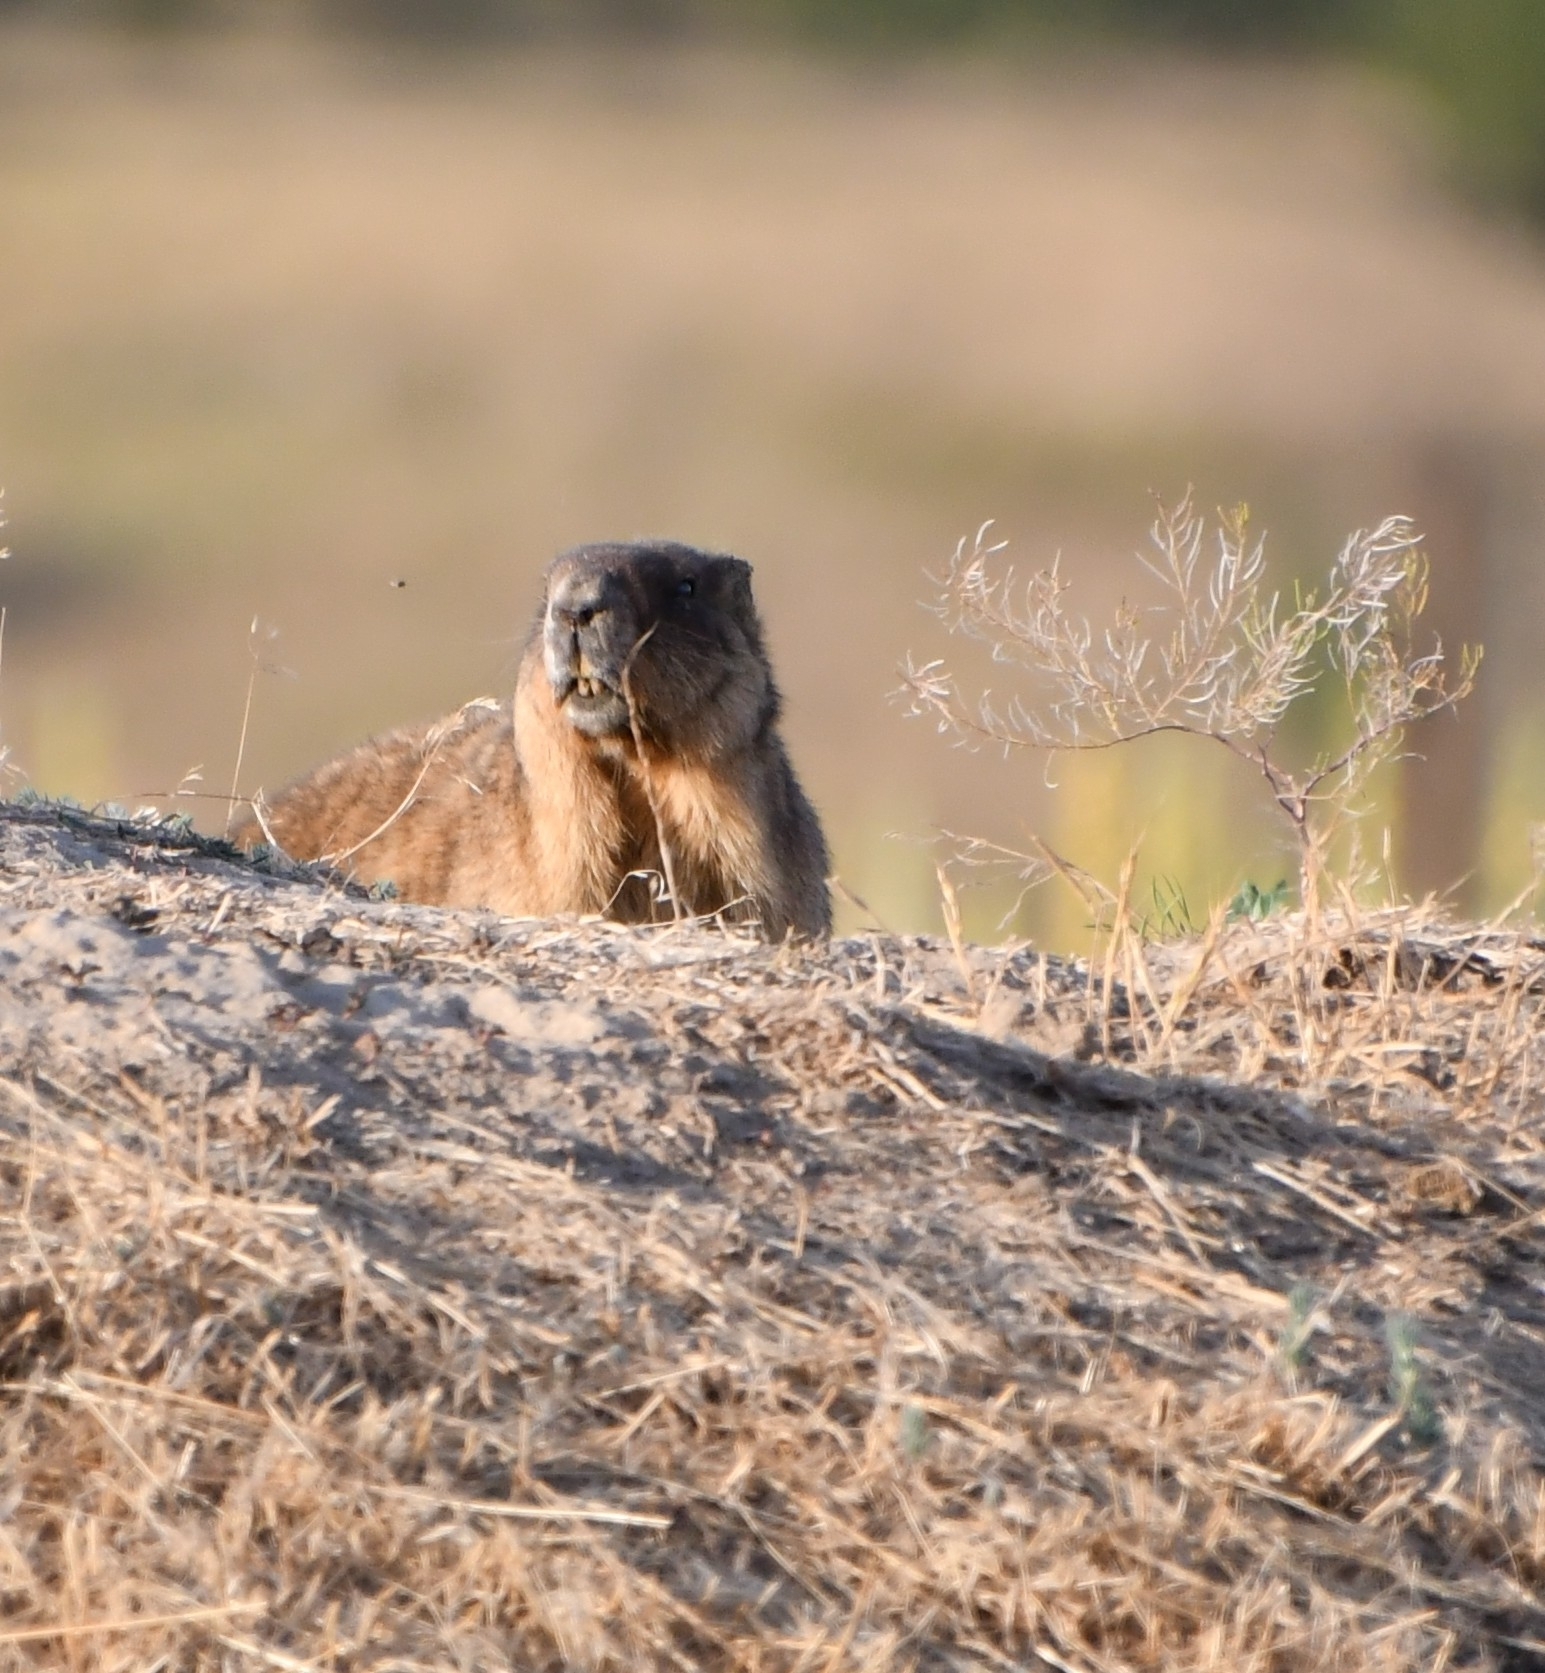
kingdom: Animalia
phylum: Chordata
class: Mammalia
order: Rodentia
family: Sciuridae
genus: Marmota
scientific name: Marmota bobak
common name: Bobak marmot
